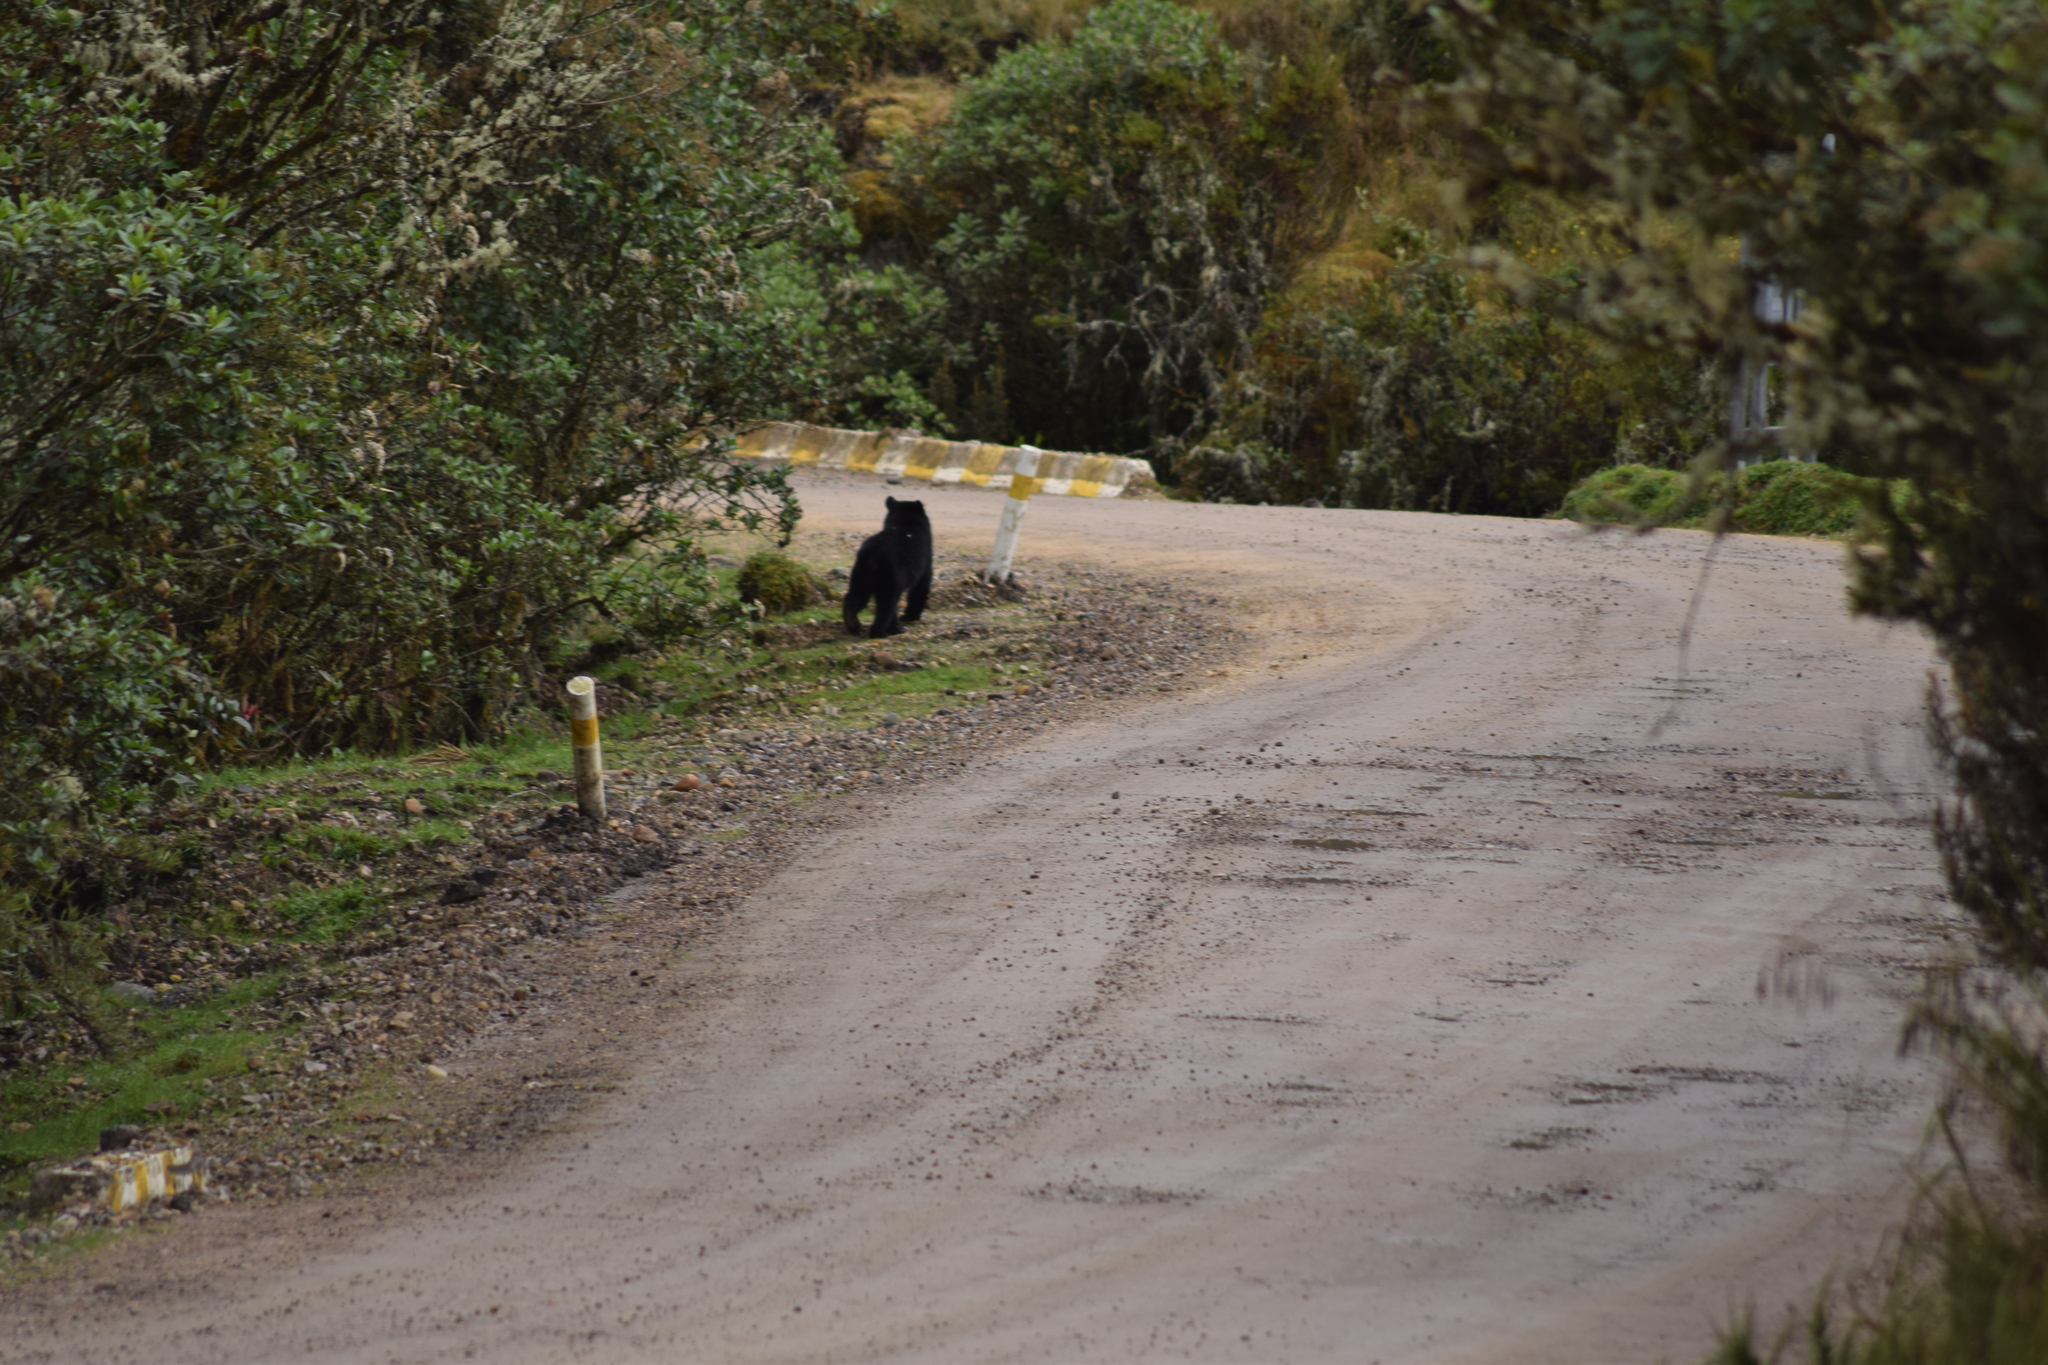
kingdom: Animalia
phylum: Chordata
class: Mammalia
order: Carnivora
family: Ursidae
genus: Tremarctos
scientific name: Tremarctos ornatus
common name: Spectacled bear
